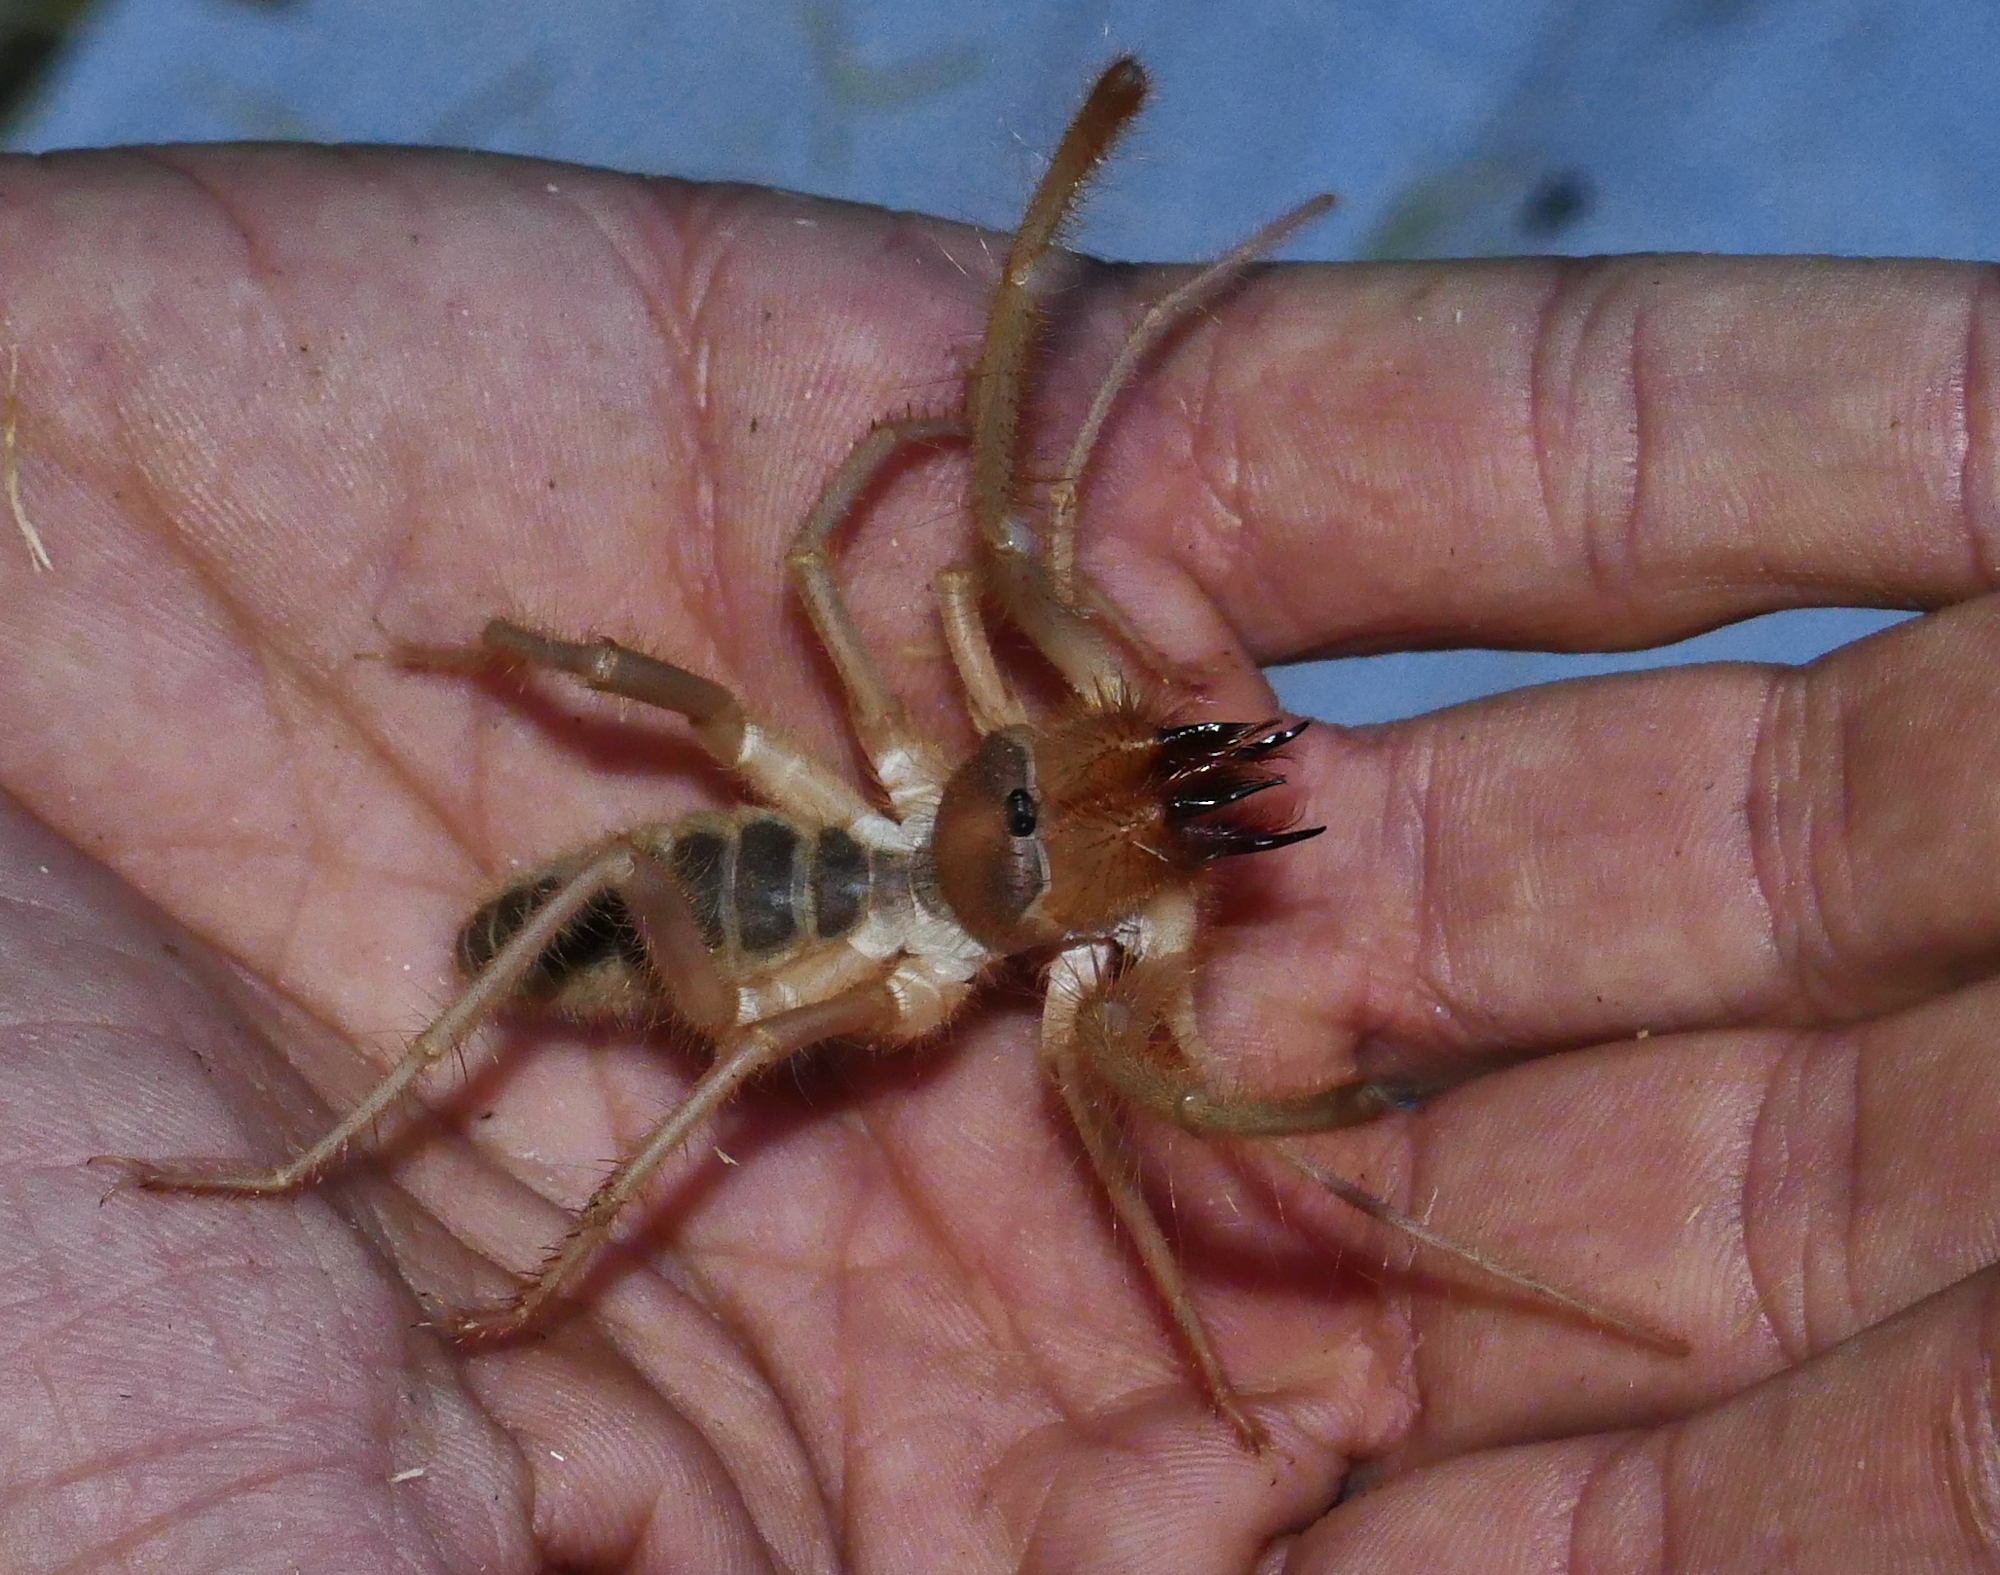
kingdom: Animalia
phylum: Arthropoda
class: Arachnida
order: Solifugae
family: Eremobatidae
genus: Eremocosta
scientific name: Eremocosta striata
